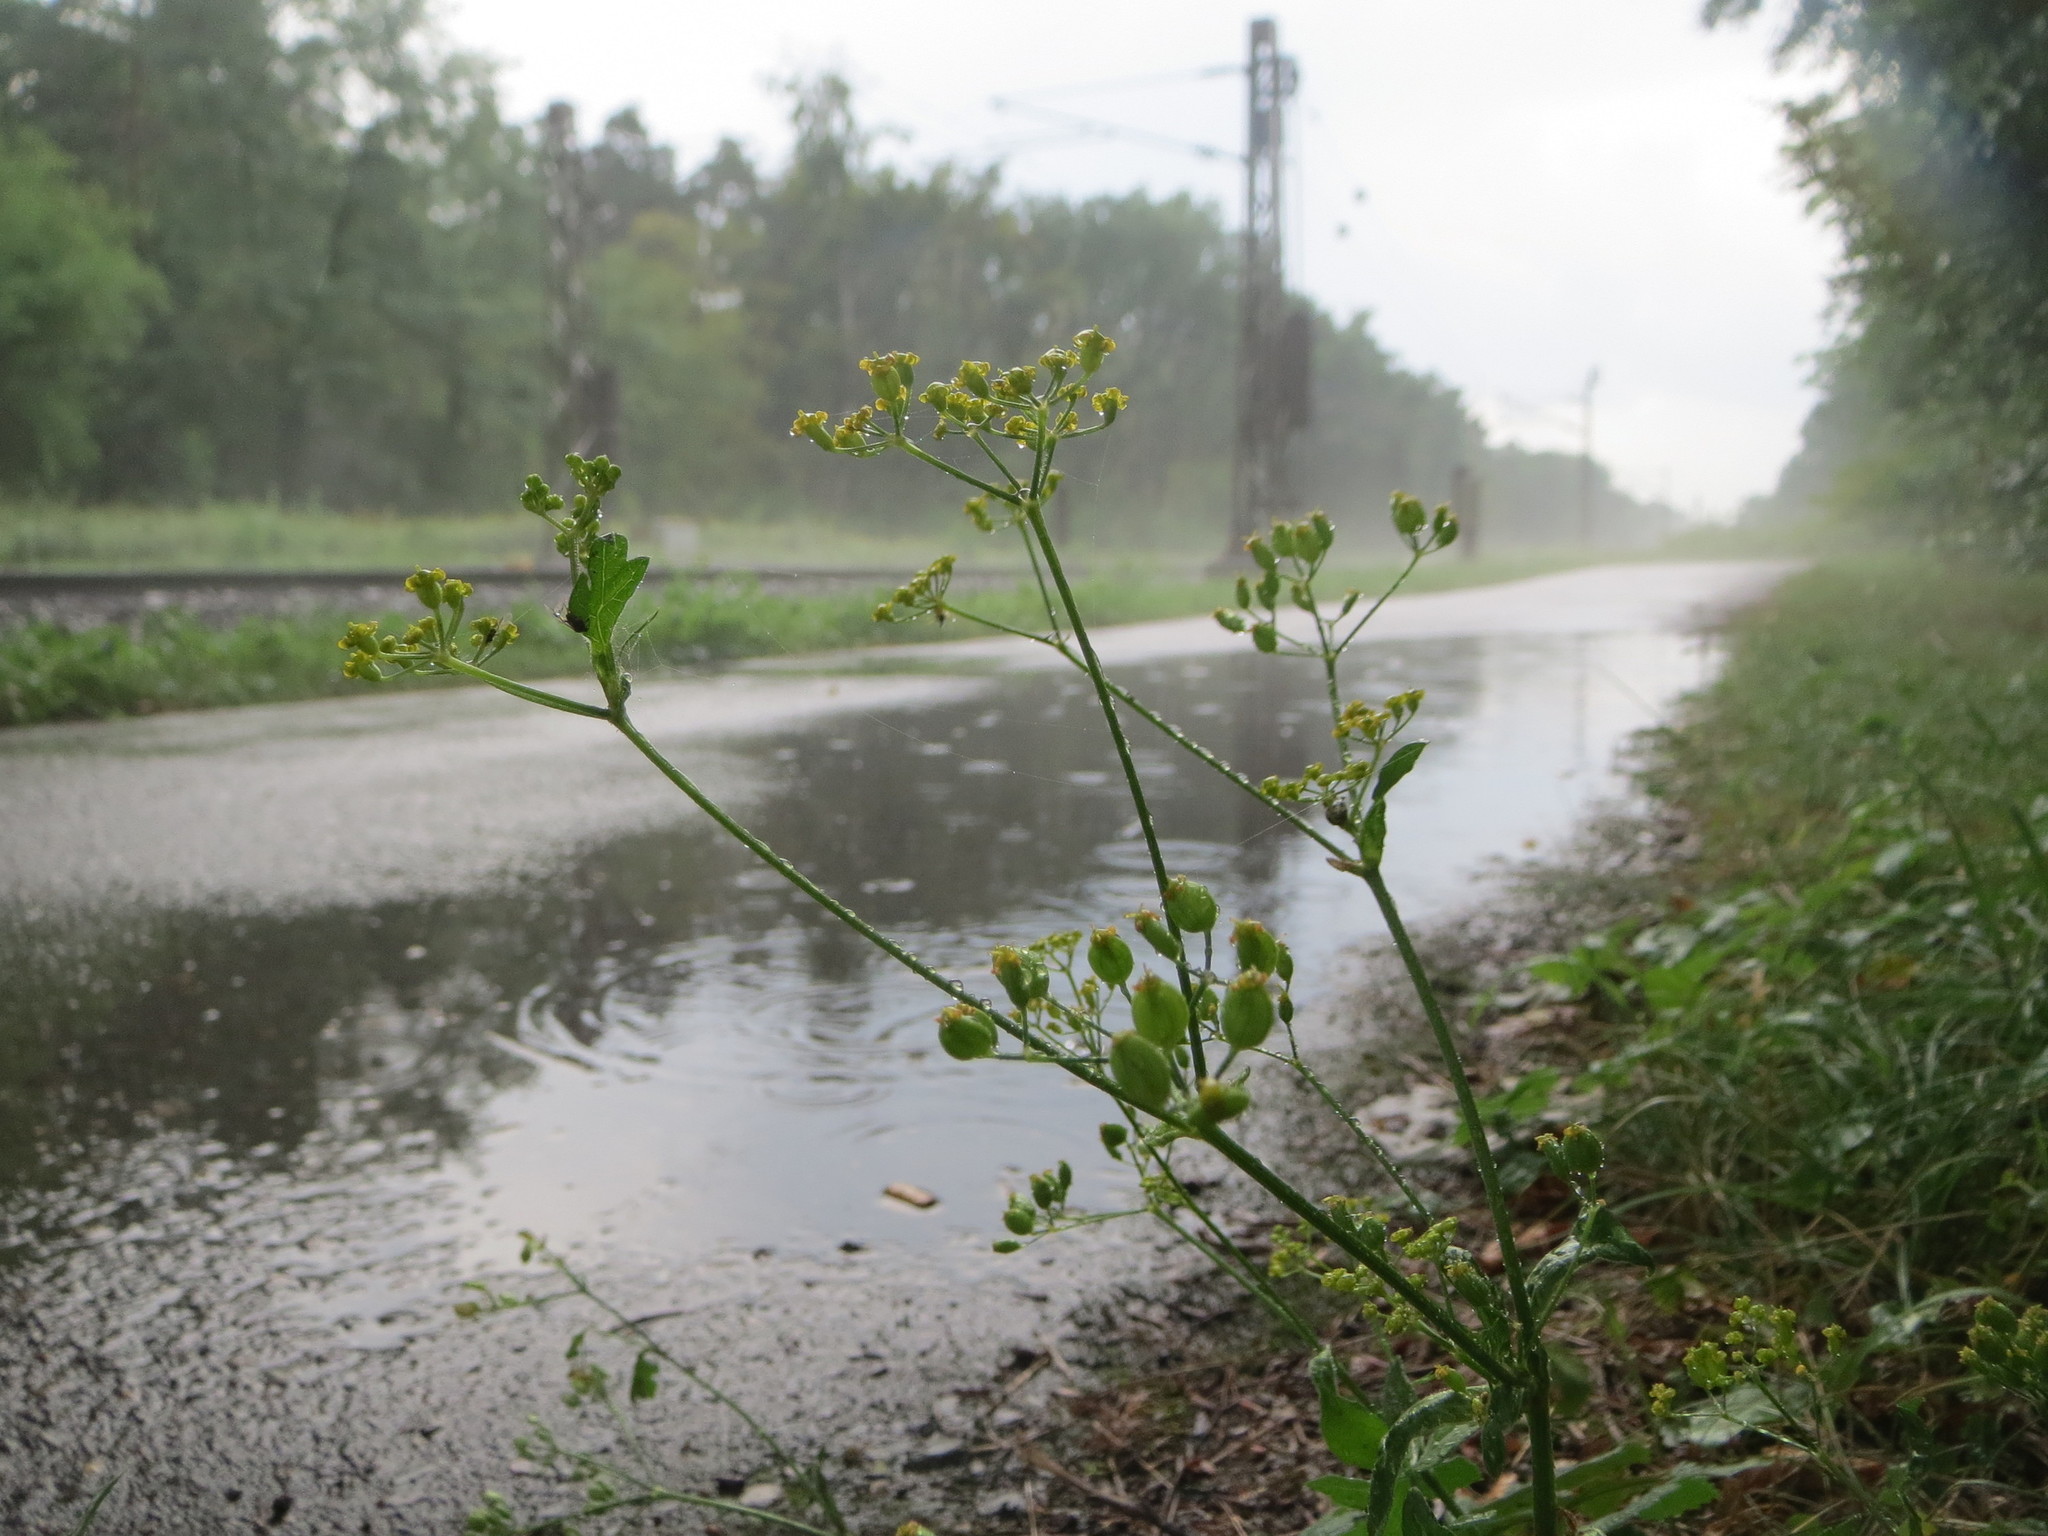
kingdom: Plantae
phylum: Tracheophyta
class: Magnoliopsida
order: Apiales
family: Apiaceae
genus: Pastinaca
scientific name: Pastinaca sativa
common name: Wild parsnip
